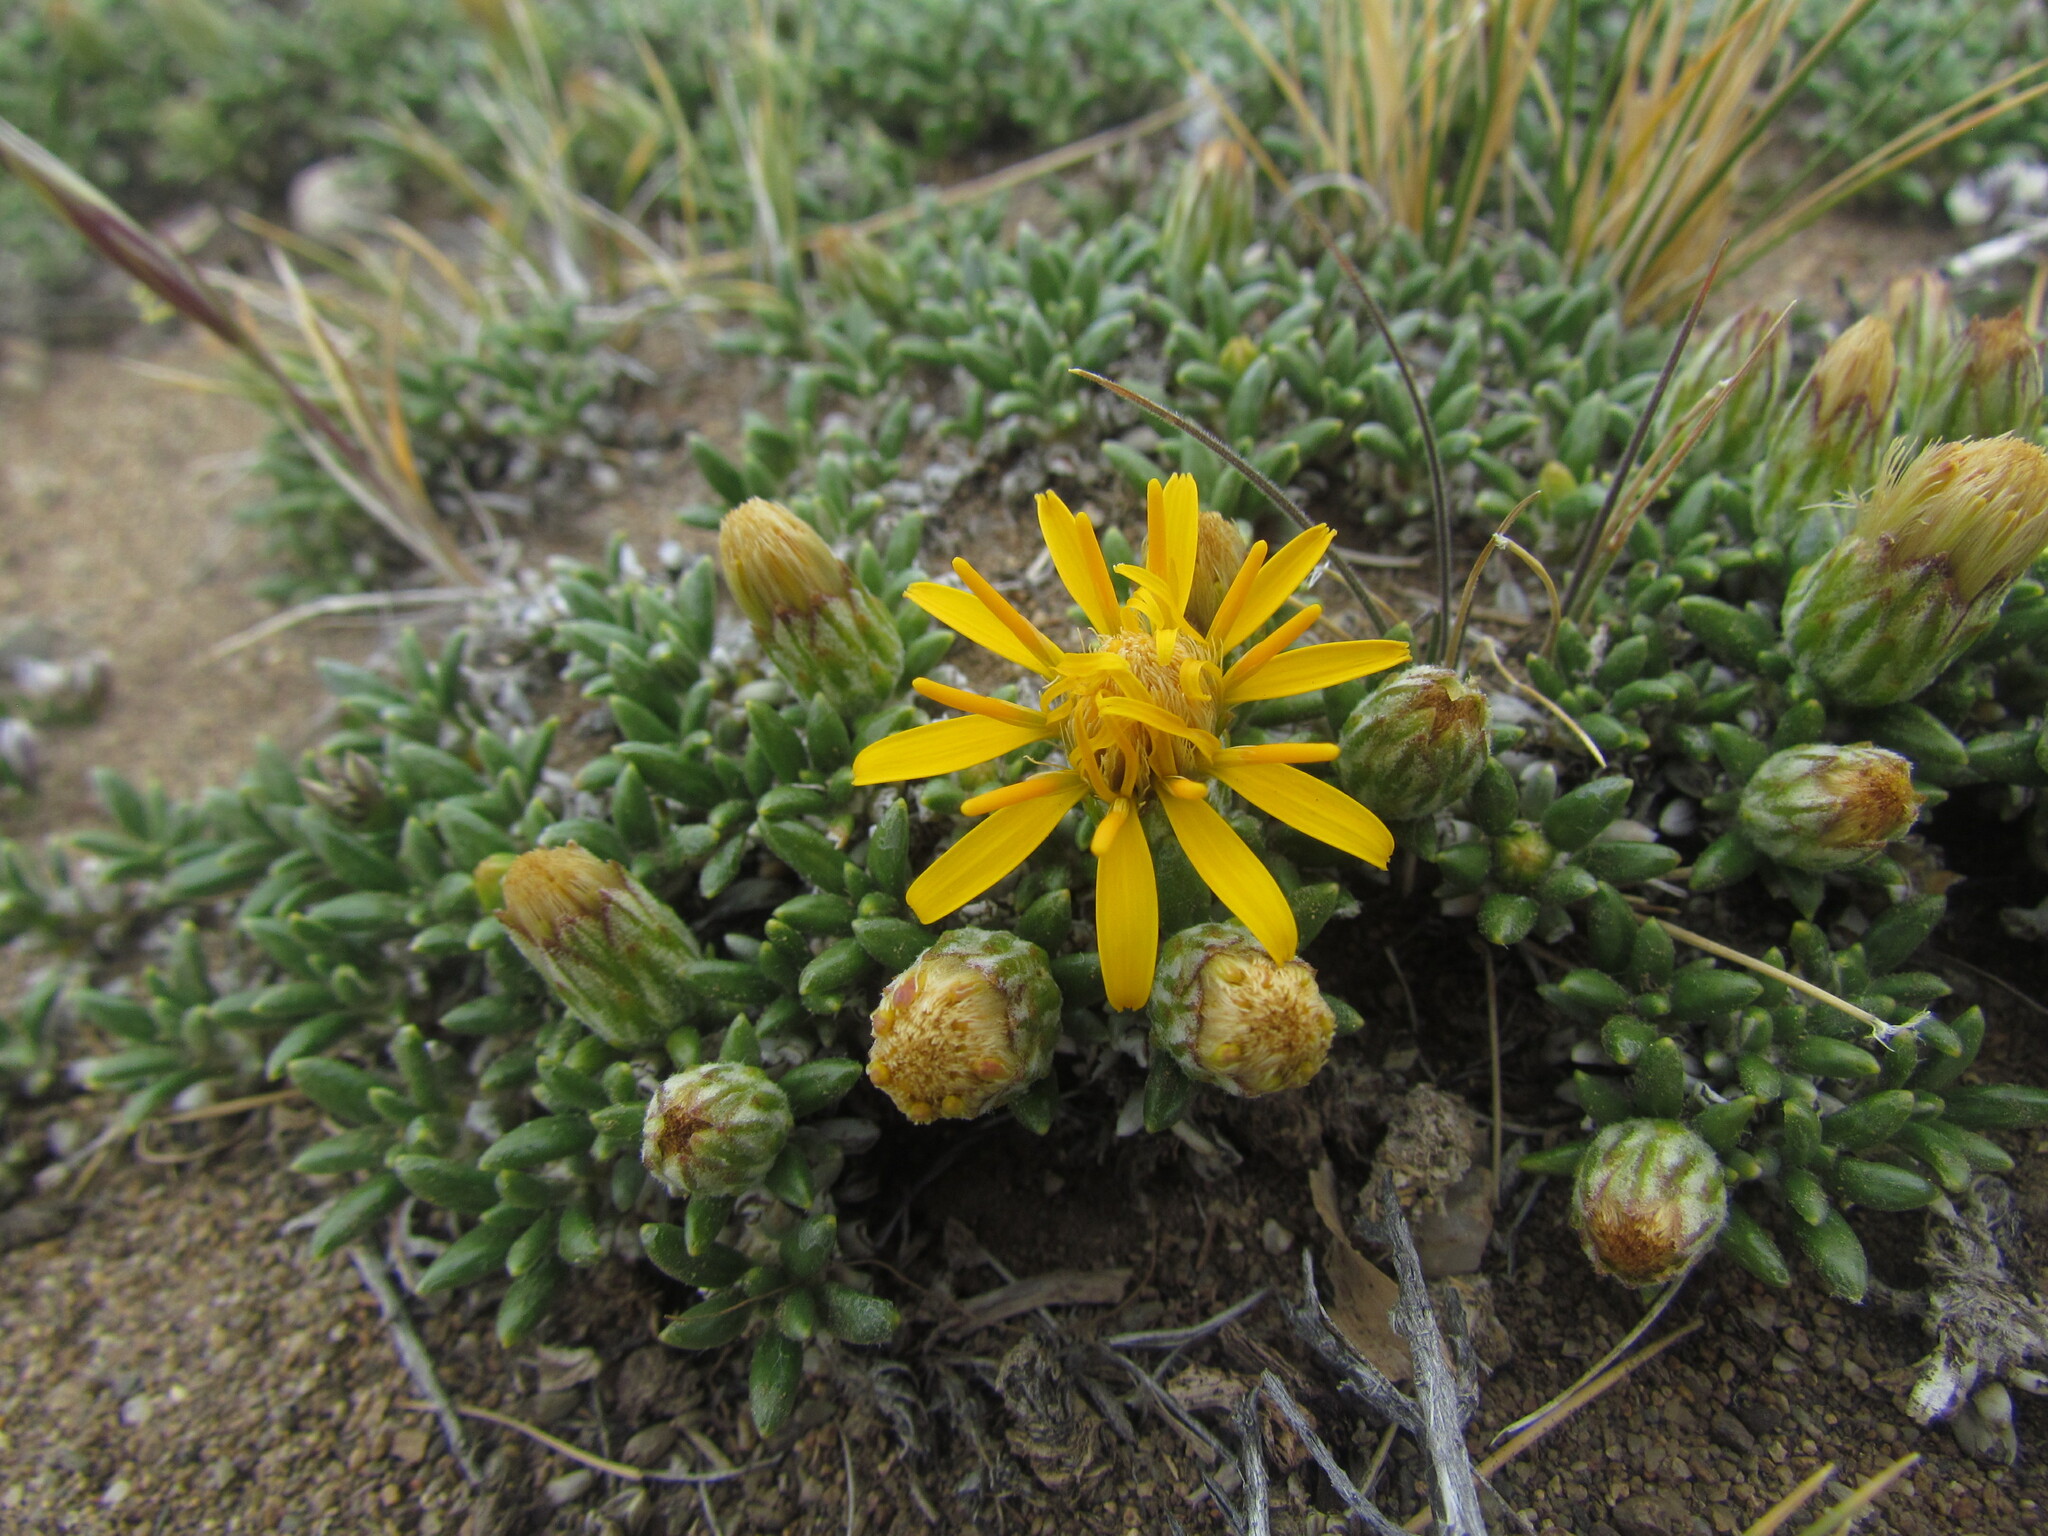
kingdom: Plantae
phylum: Tracheophyta
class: Magnoliopsida
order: Asterales
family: Asteraceae
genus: Brachyclados
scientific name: Brachyclados caespitosus
